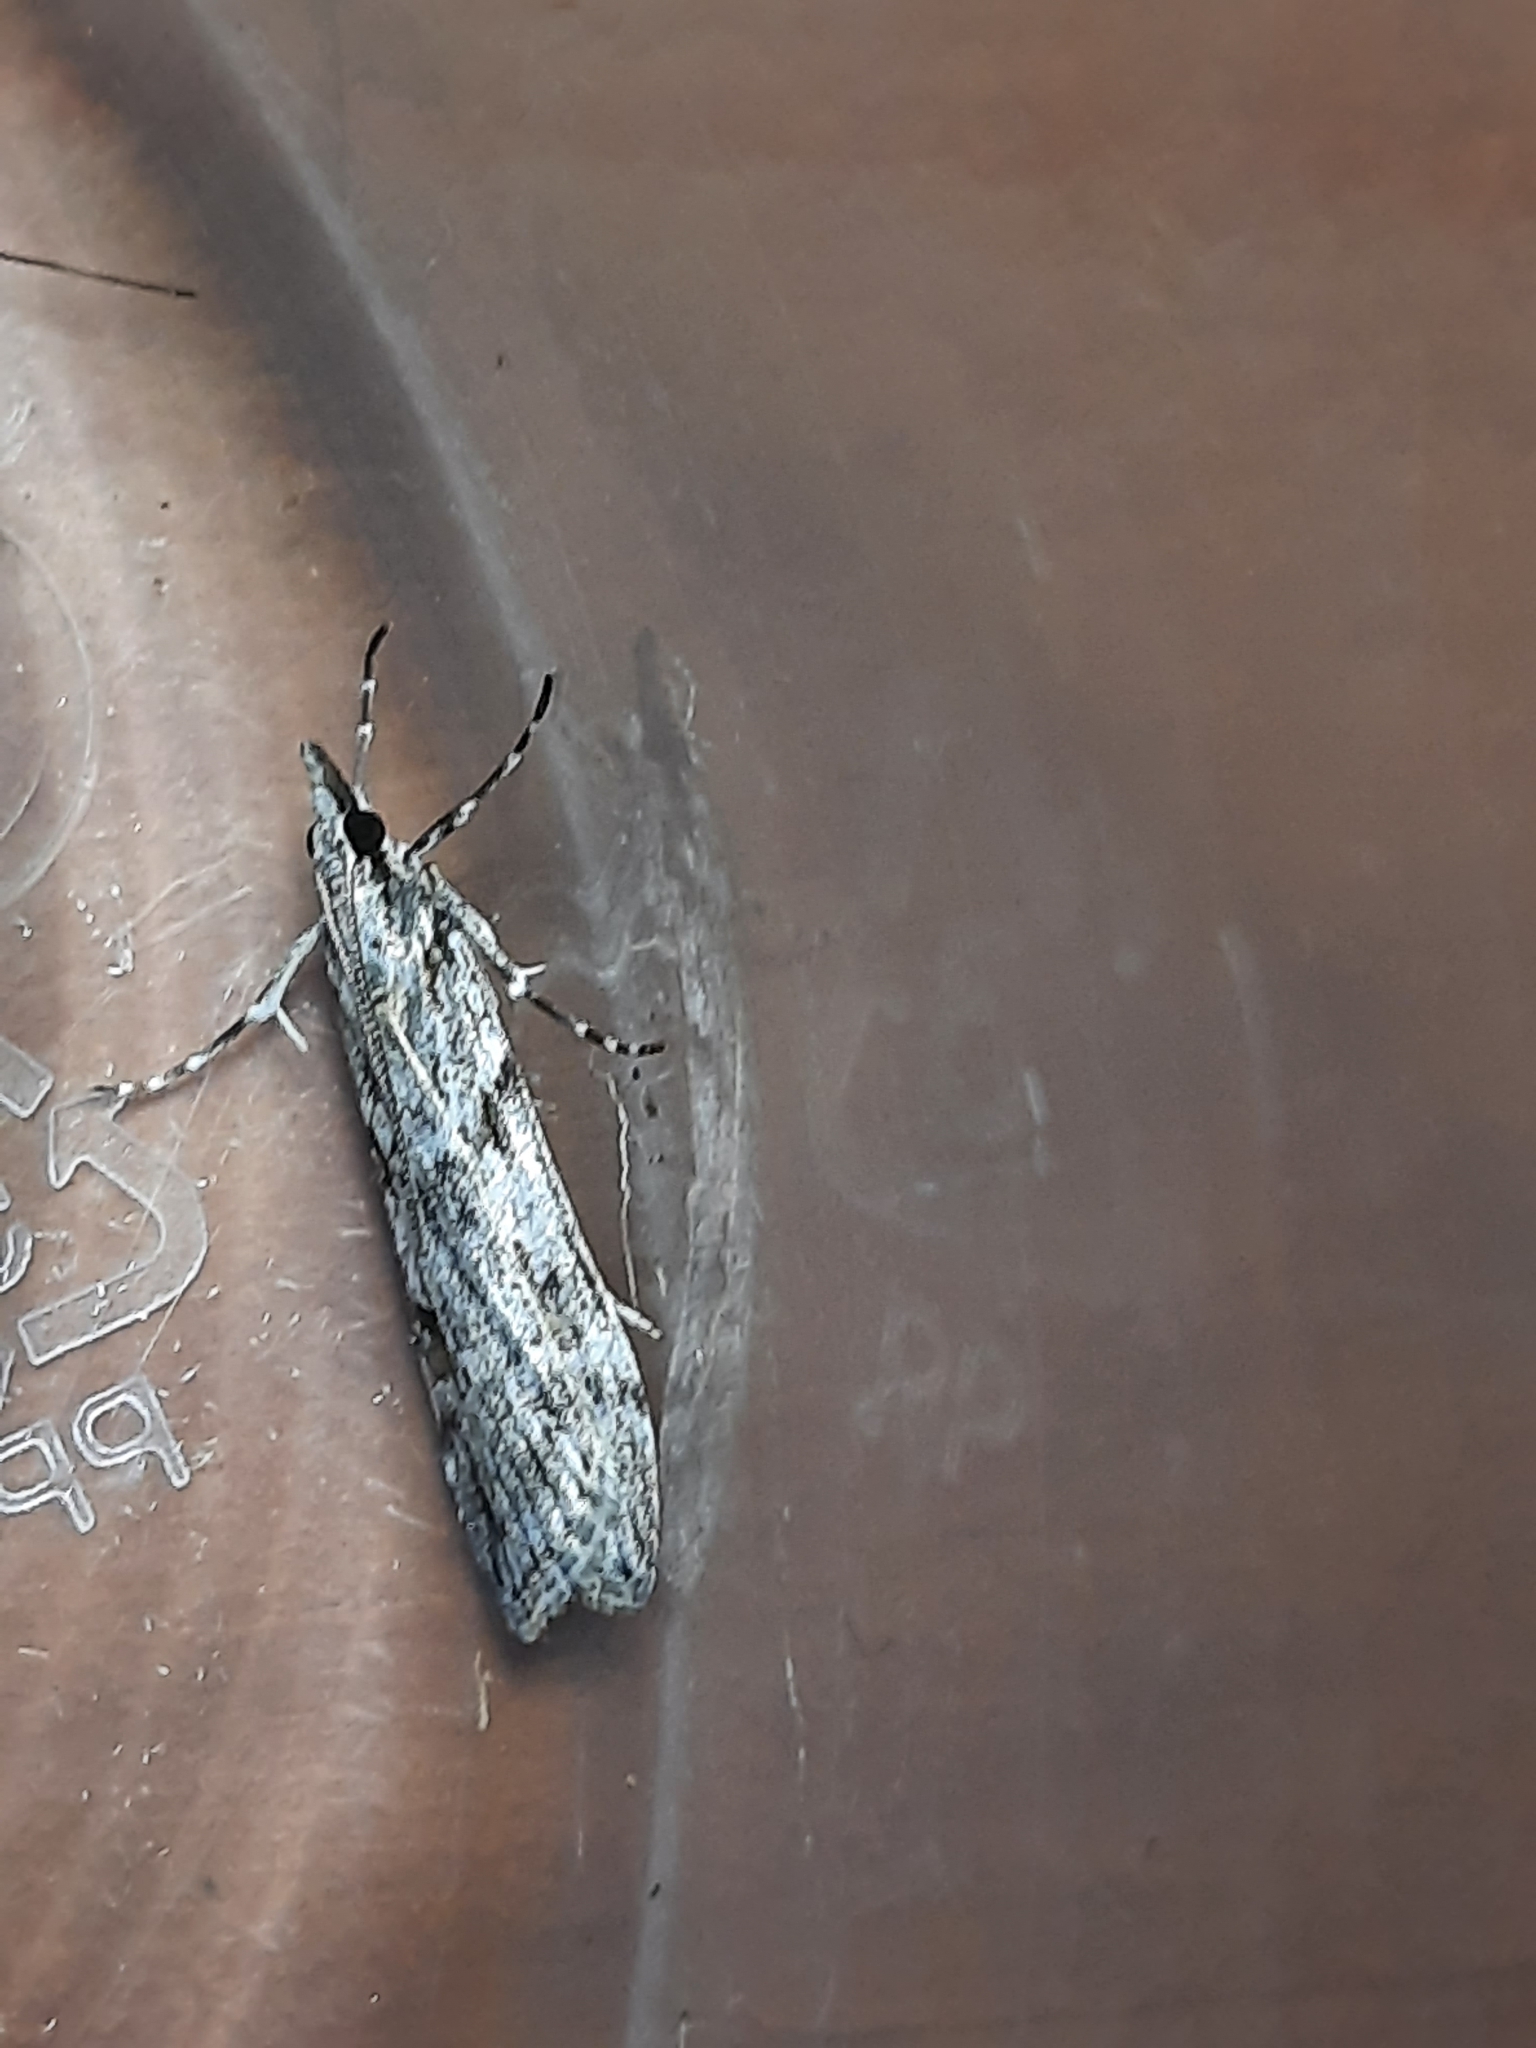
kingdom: Animalia
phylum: Arthropoda
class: Insecta
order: Lepidoptera
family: Crambidae
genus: Scoparia
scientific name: Scoparia halopis
